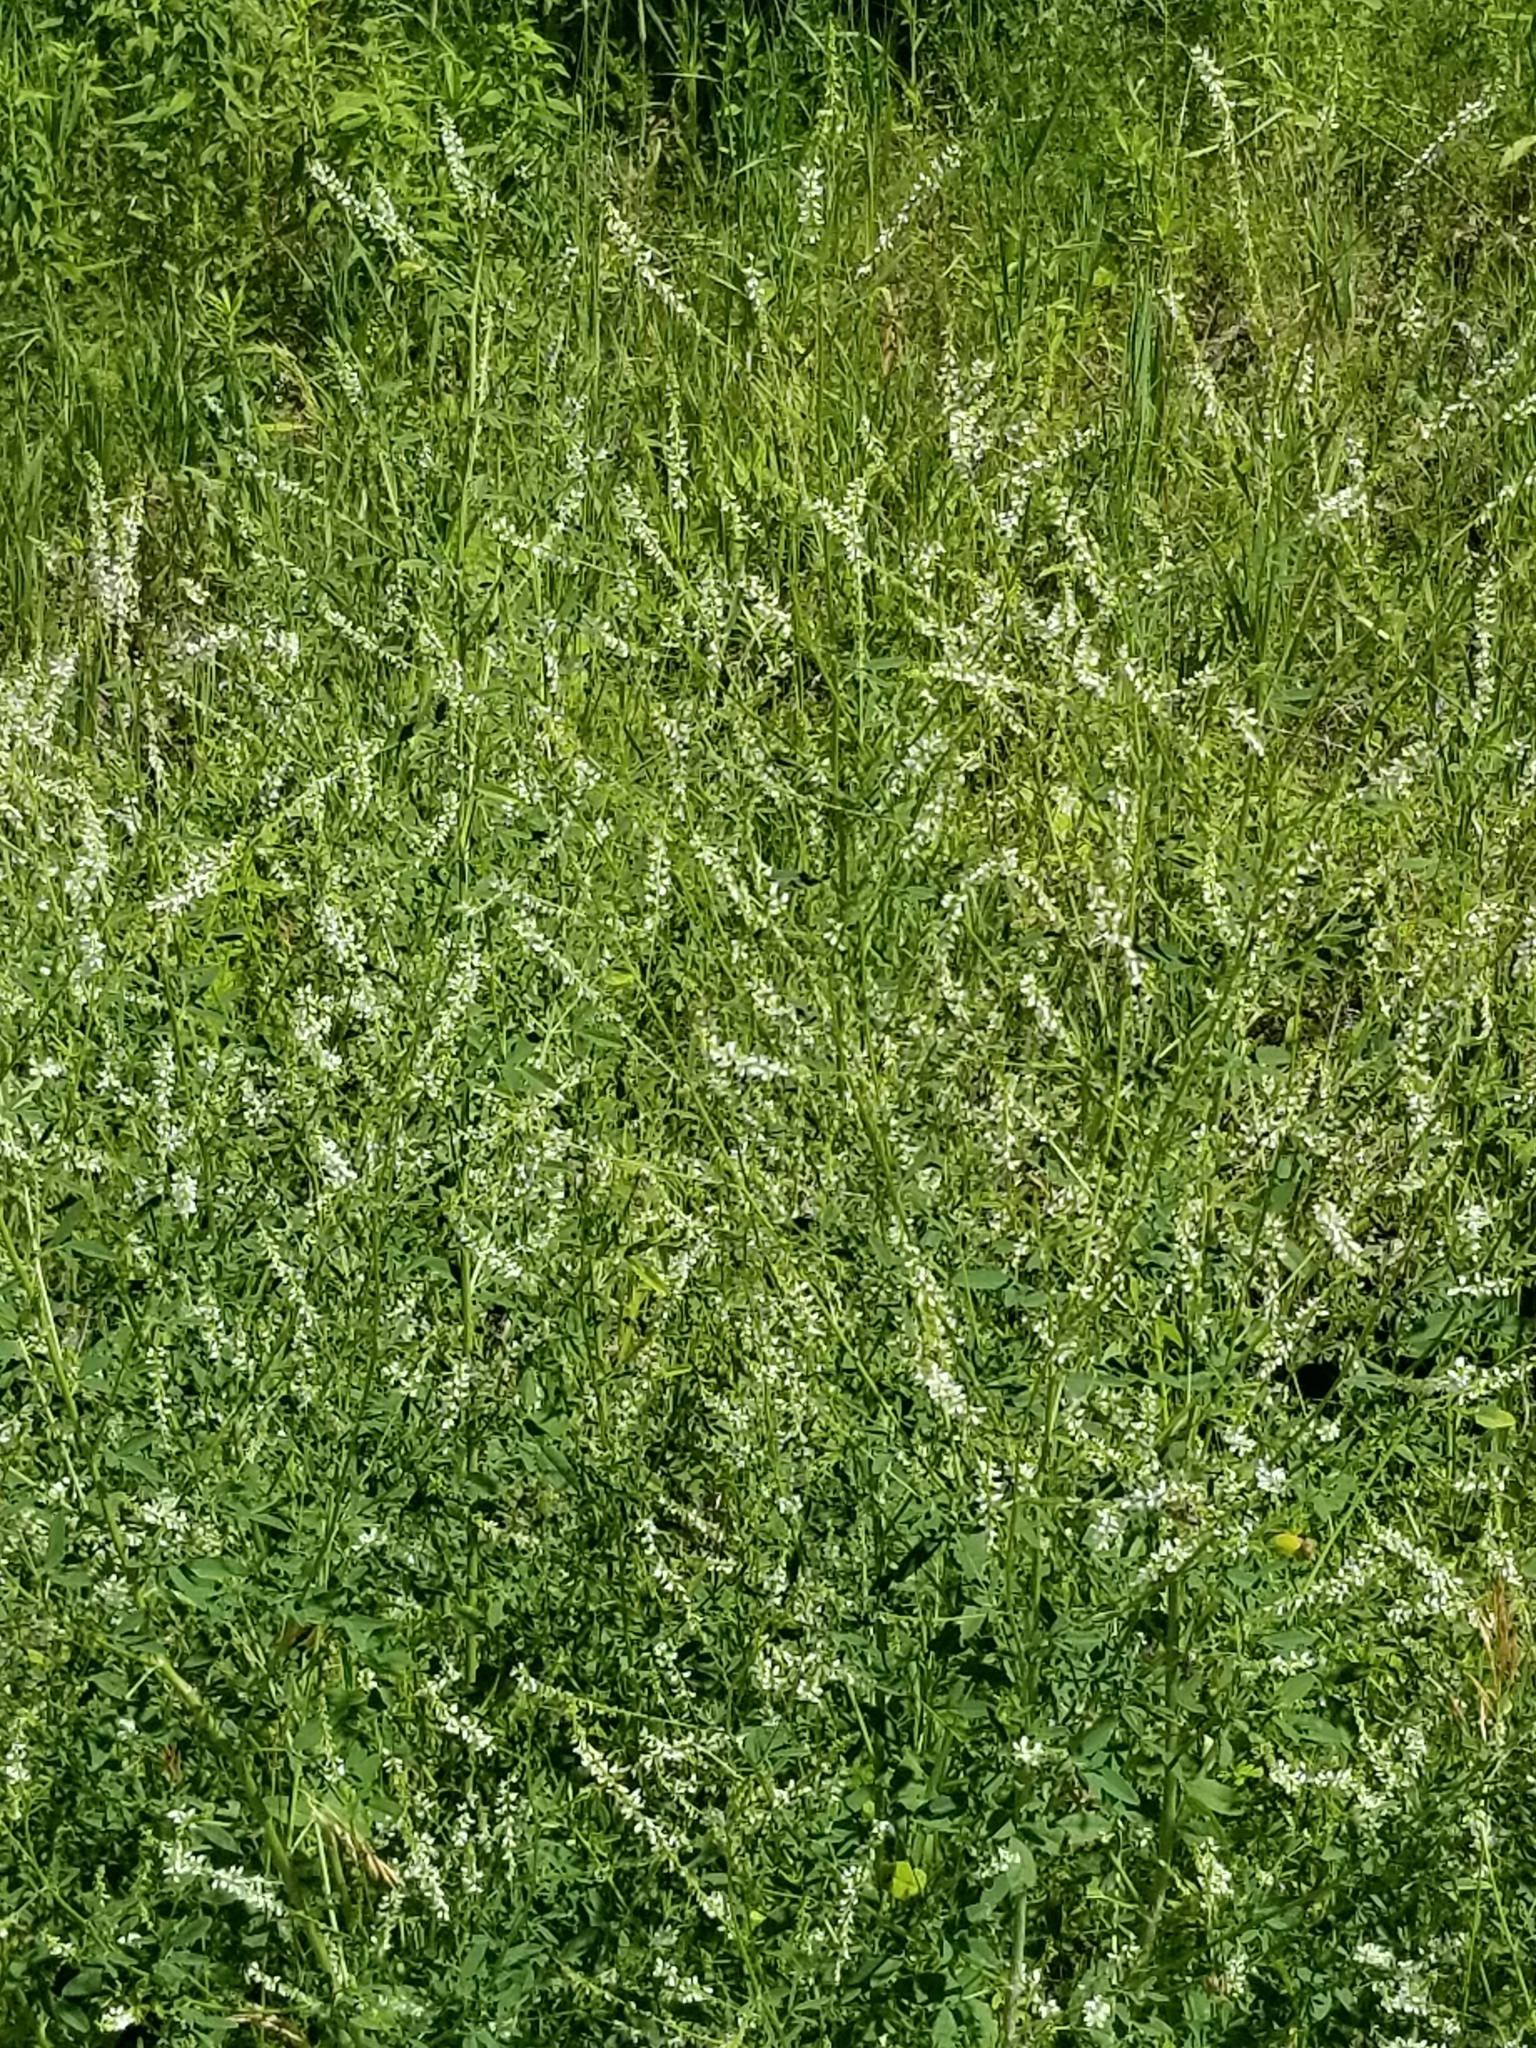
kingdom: Plantae
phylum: Tracheophyta
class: Magnoliopsida
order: Fabales
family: Fabaceae
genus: Melilotus
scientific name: Melilotus albus
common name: White melilot
